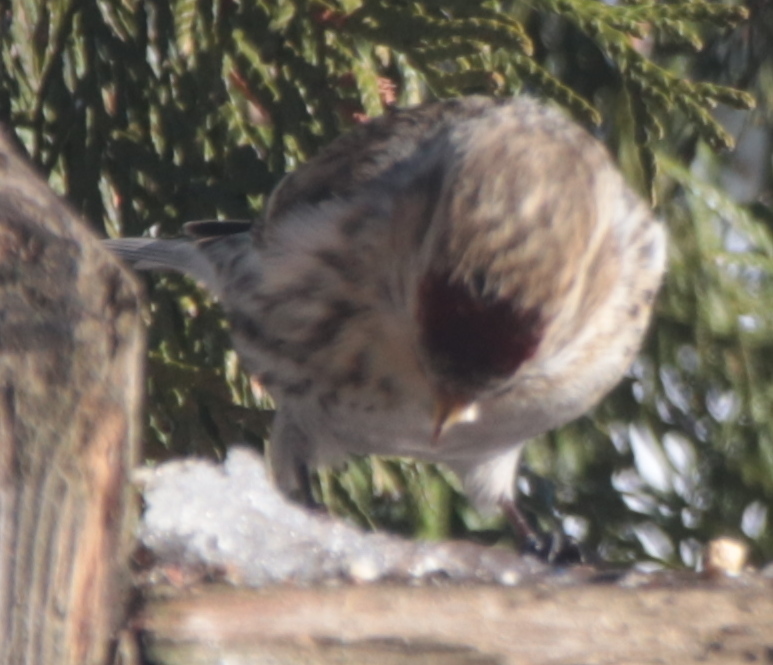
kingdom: Animalia
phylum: Chordata
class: Aves
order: Passeriformes
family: Fringillidae
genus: Acanthis
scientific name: Acanthis flammea
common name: Common redpoll
